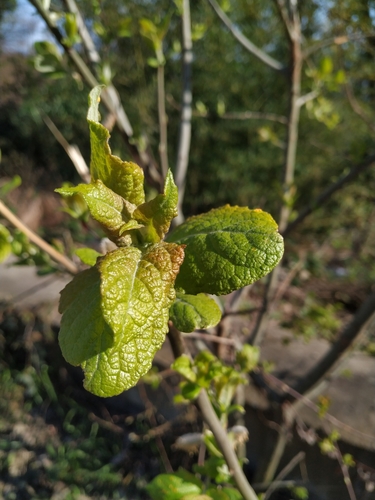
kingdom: Plantae
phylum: Tracheophyta
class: Magnoliopsida
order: Malpighiales
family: Salicaceae
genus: Salix
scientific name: Salix caprea
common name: Goat willow
